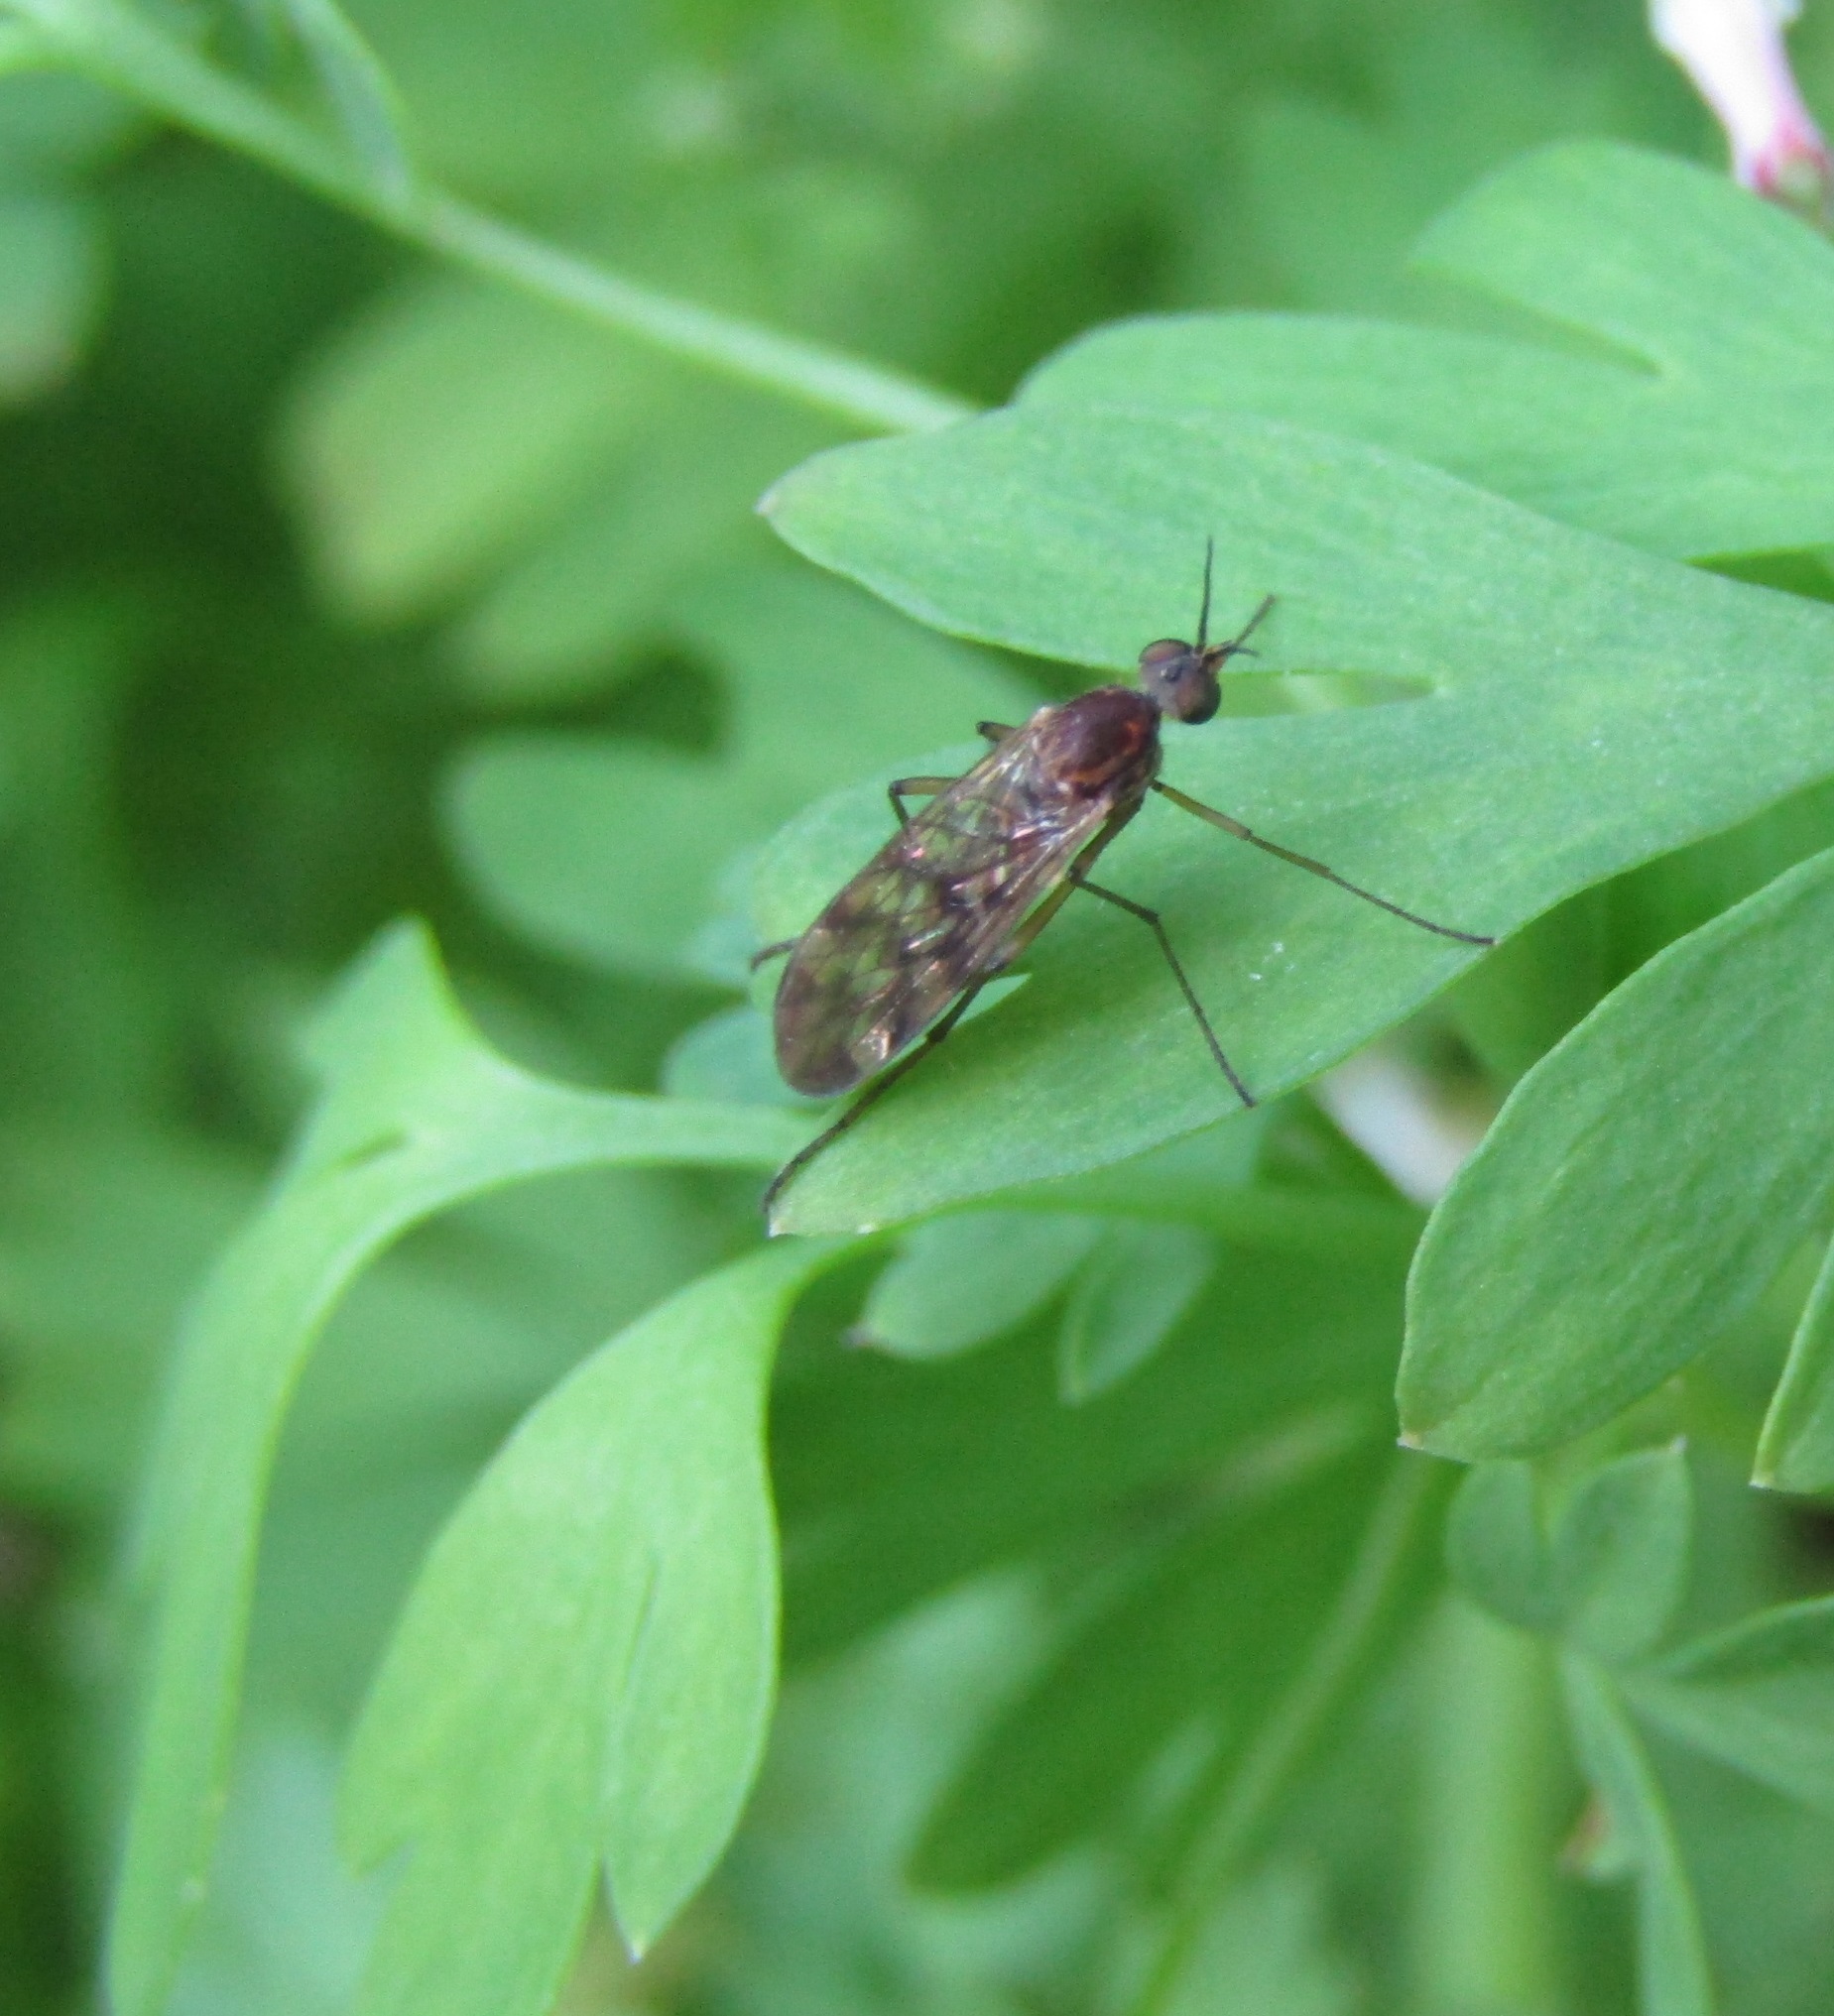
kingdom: Animalia
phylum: Arthropoda
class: Insecta
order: Diptera
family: Anisopodidae
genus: Sylvicola
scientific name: Sylvicola undulatus
